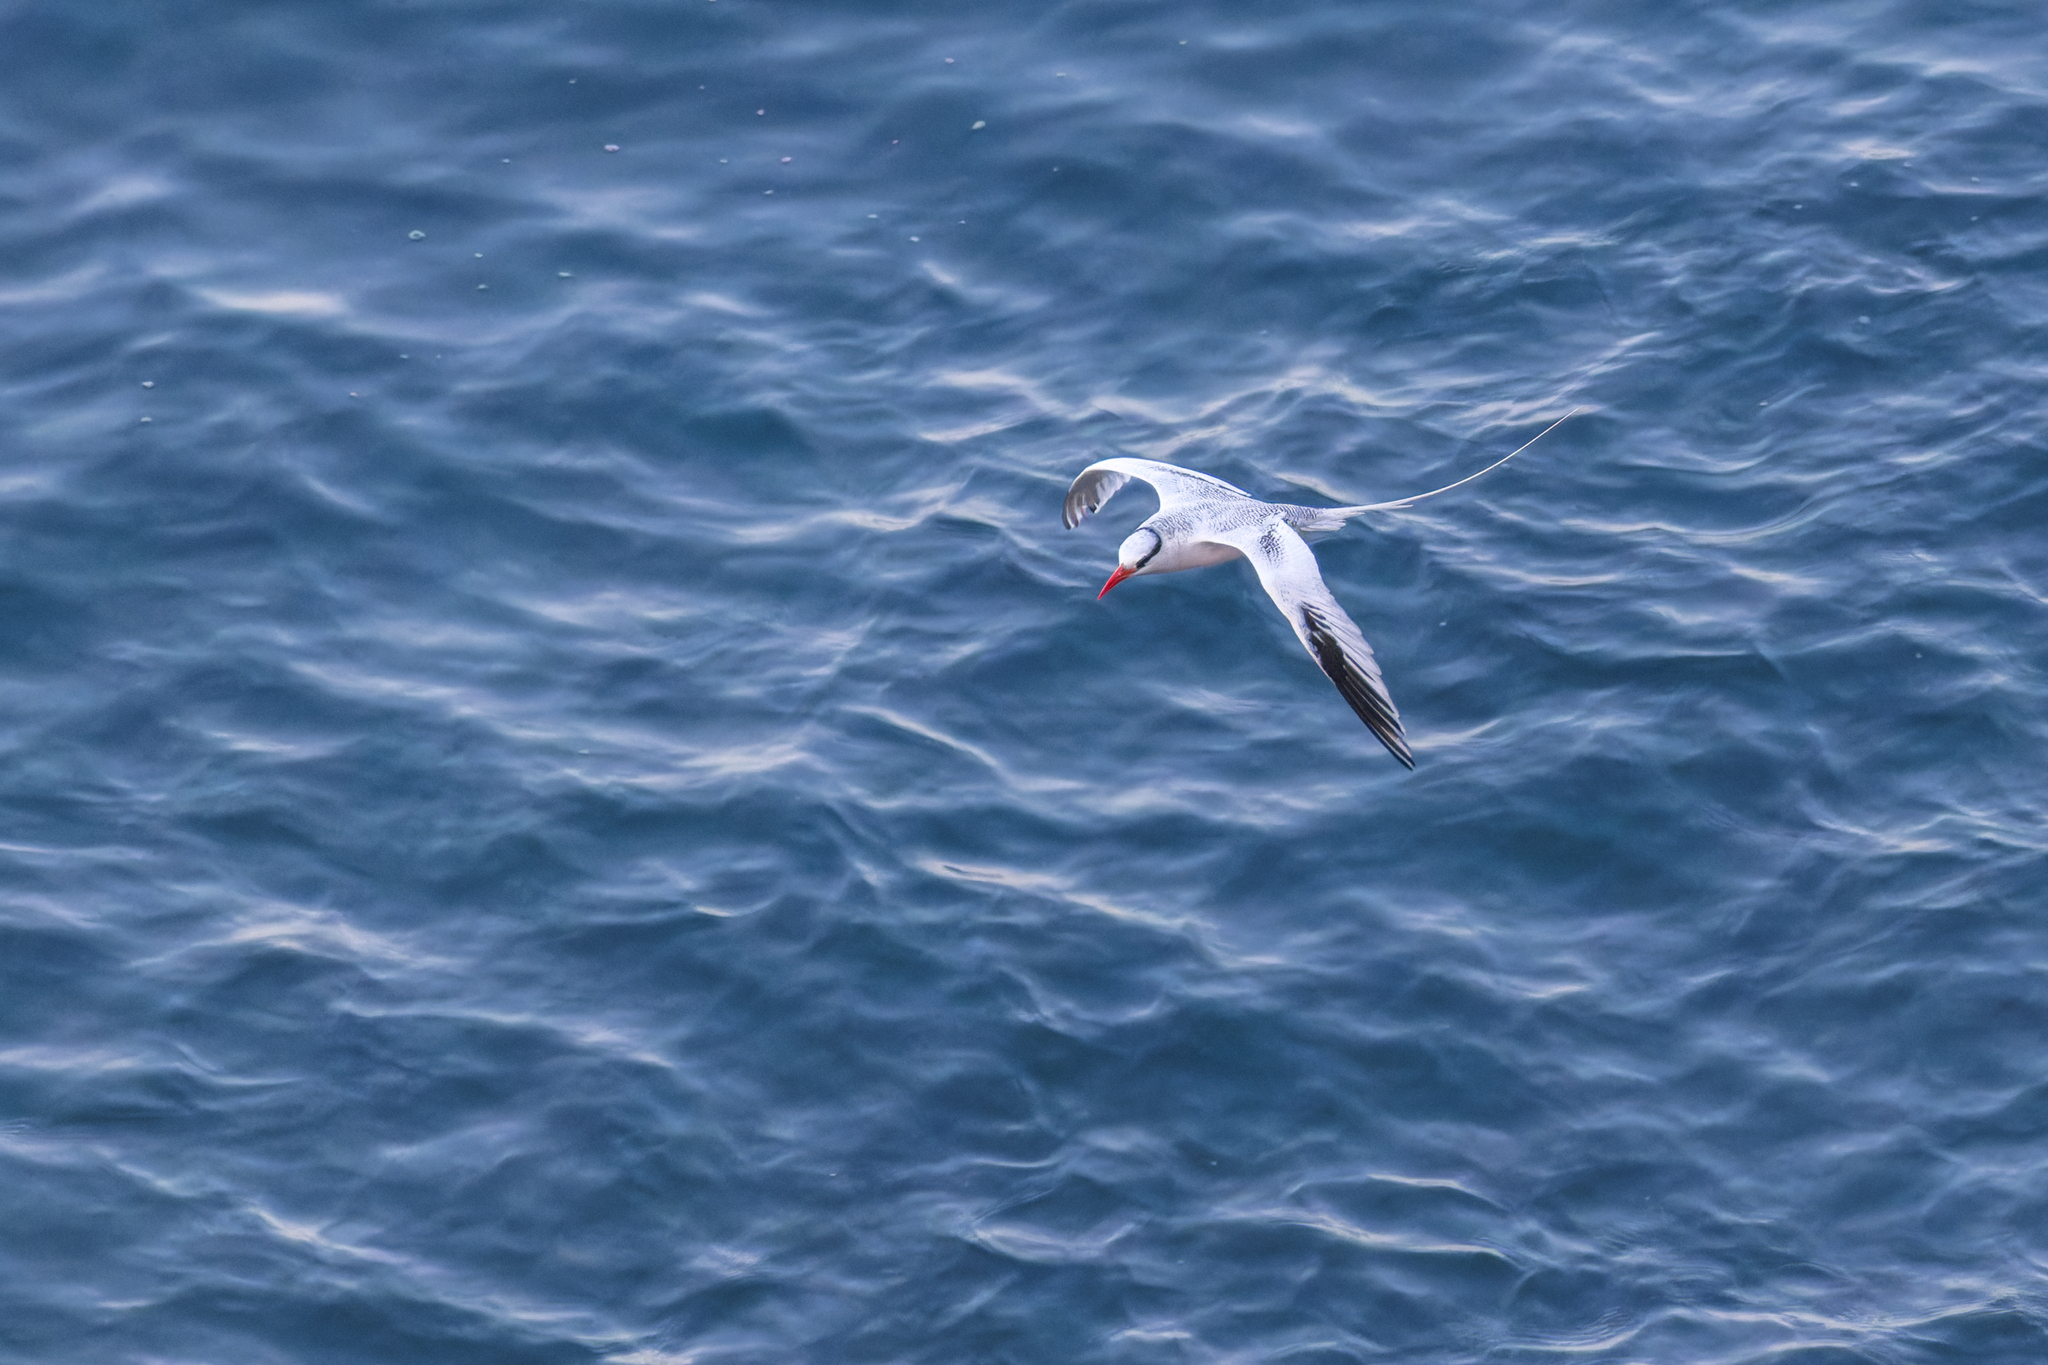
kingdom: Animalia
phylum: Chordata
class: Aves
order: Phaethontiformes
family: Phaethontidae
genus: Phaethon
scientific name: Phaethon aethereus
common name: Red-billed tropicbird
